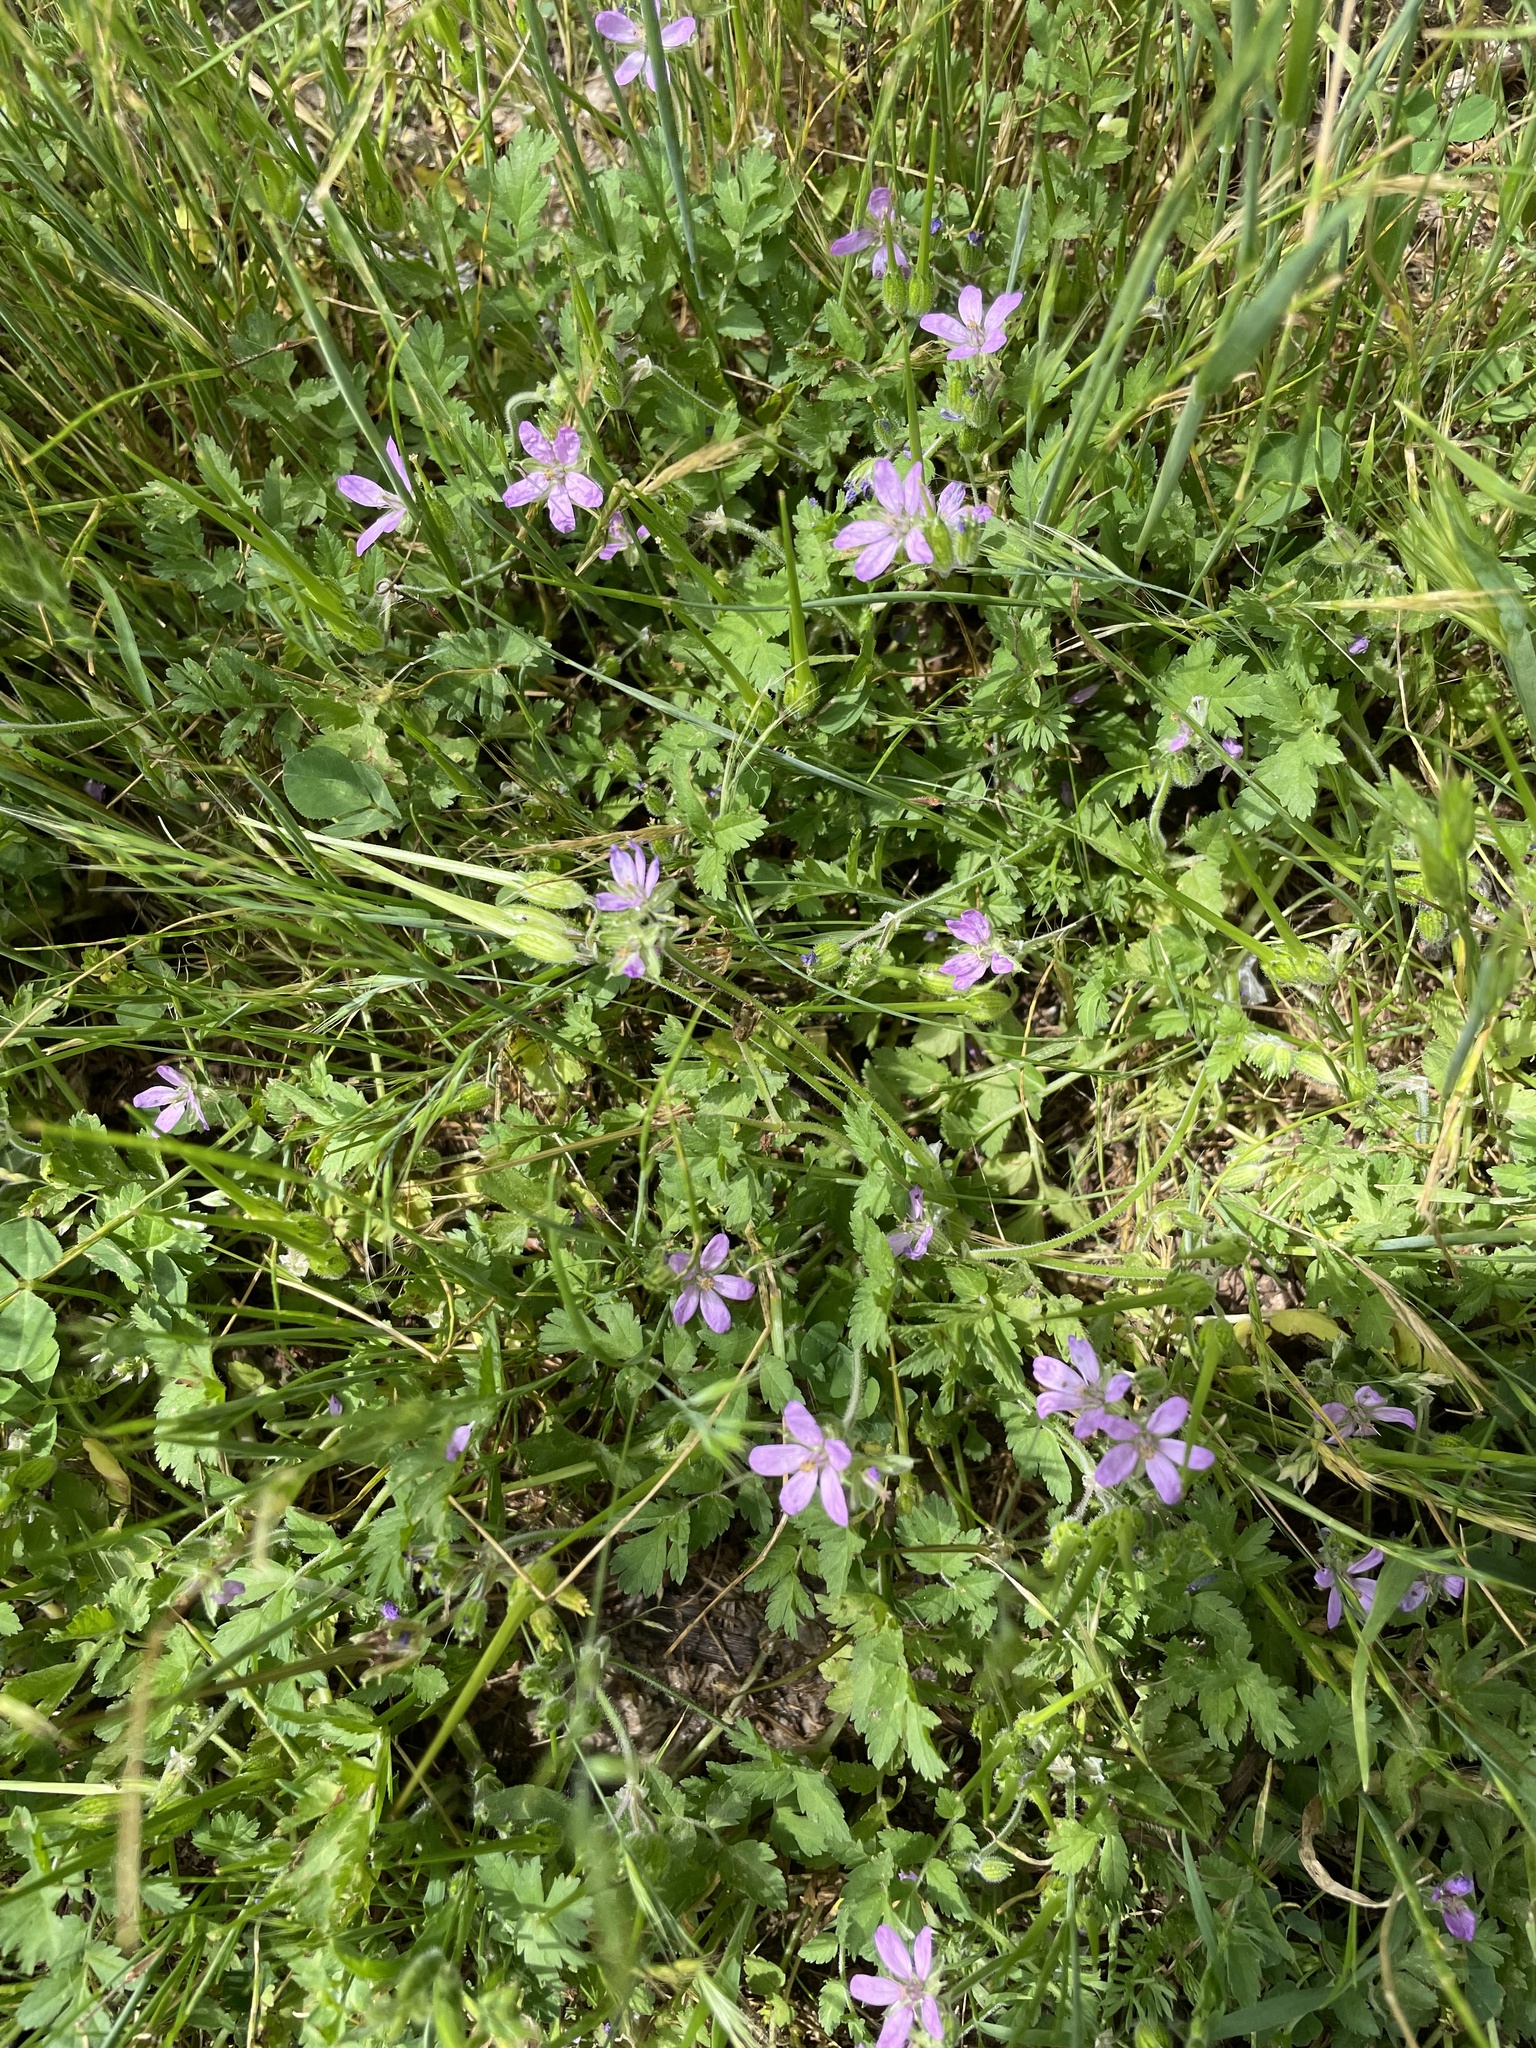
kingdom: Plantae
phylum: Tracheophyta
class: Magnoliopsida
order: Geraniales
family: Geraniaceae
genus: Erodium
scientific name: Erodium moschatum
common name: Musk stork's-bill
